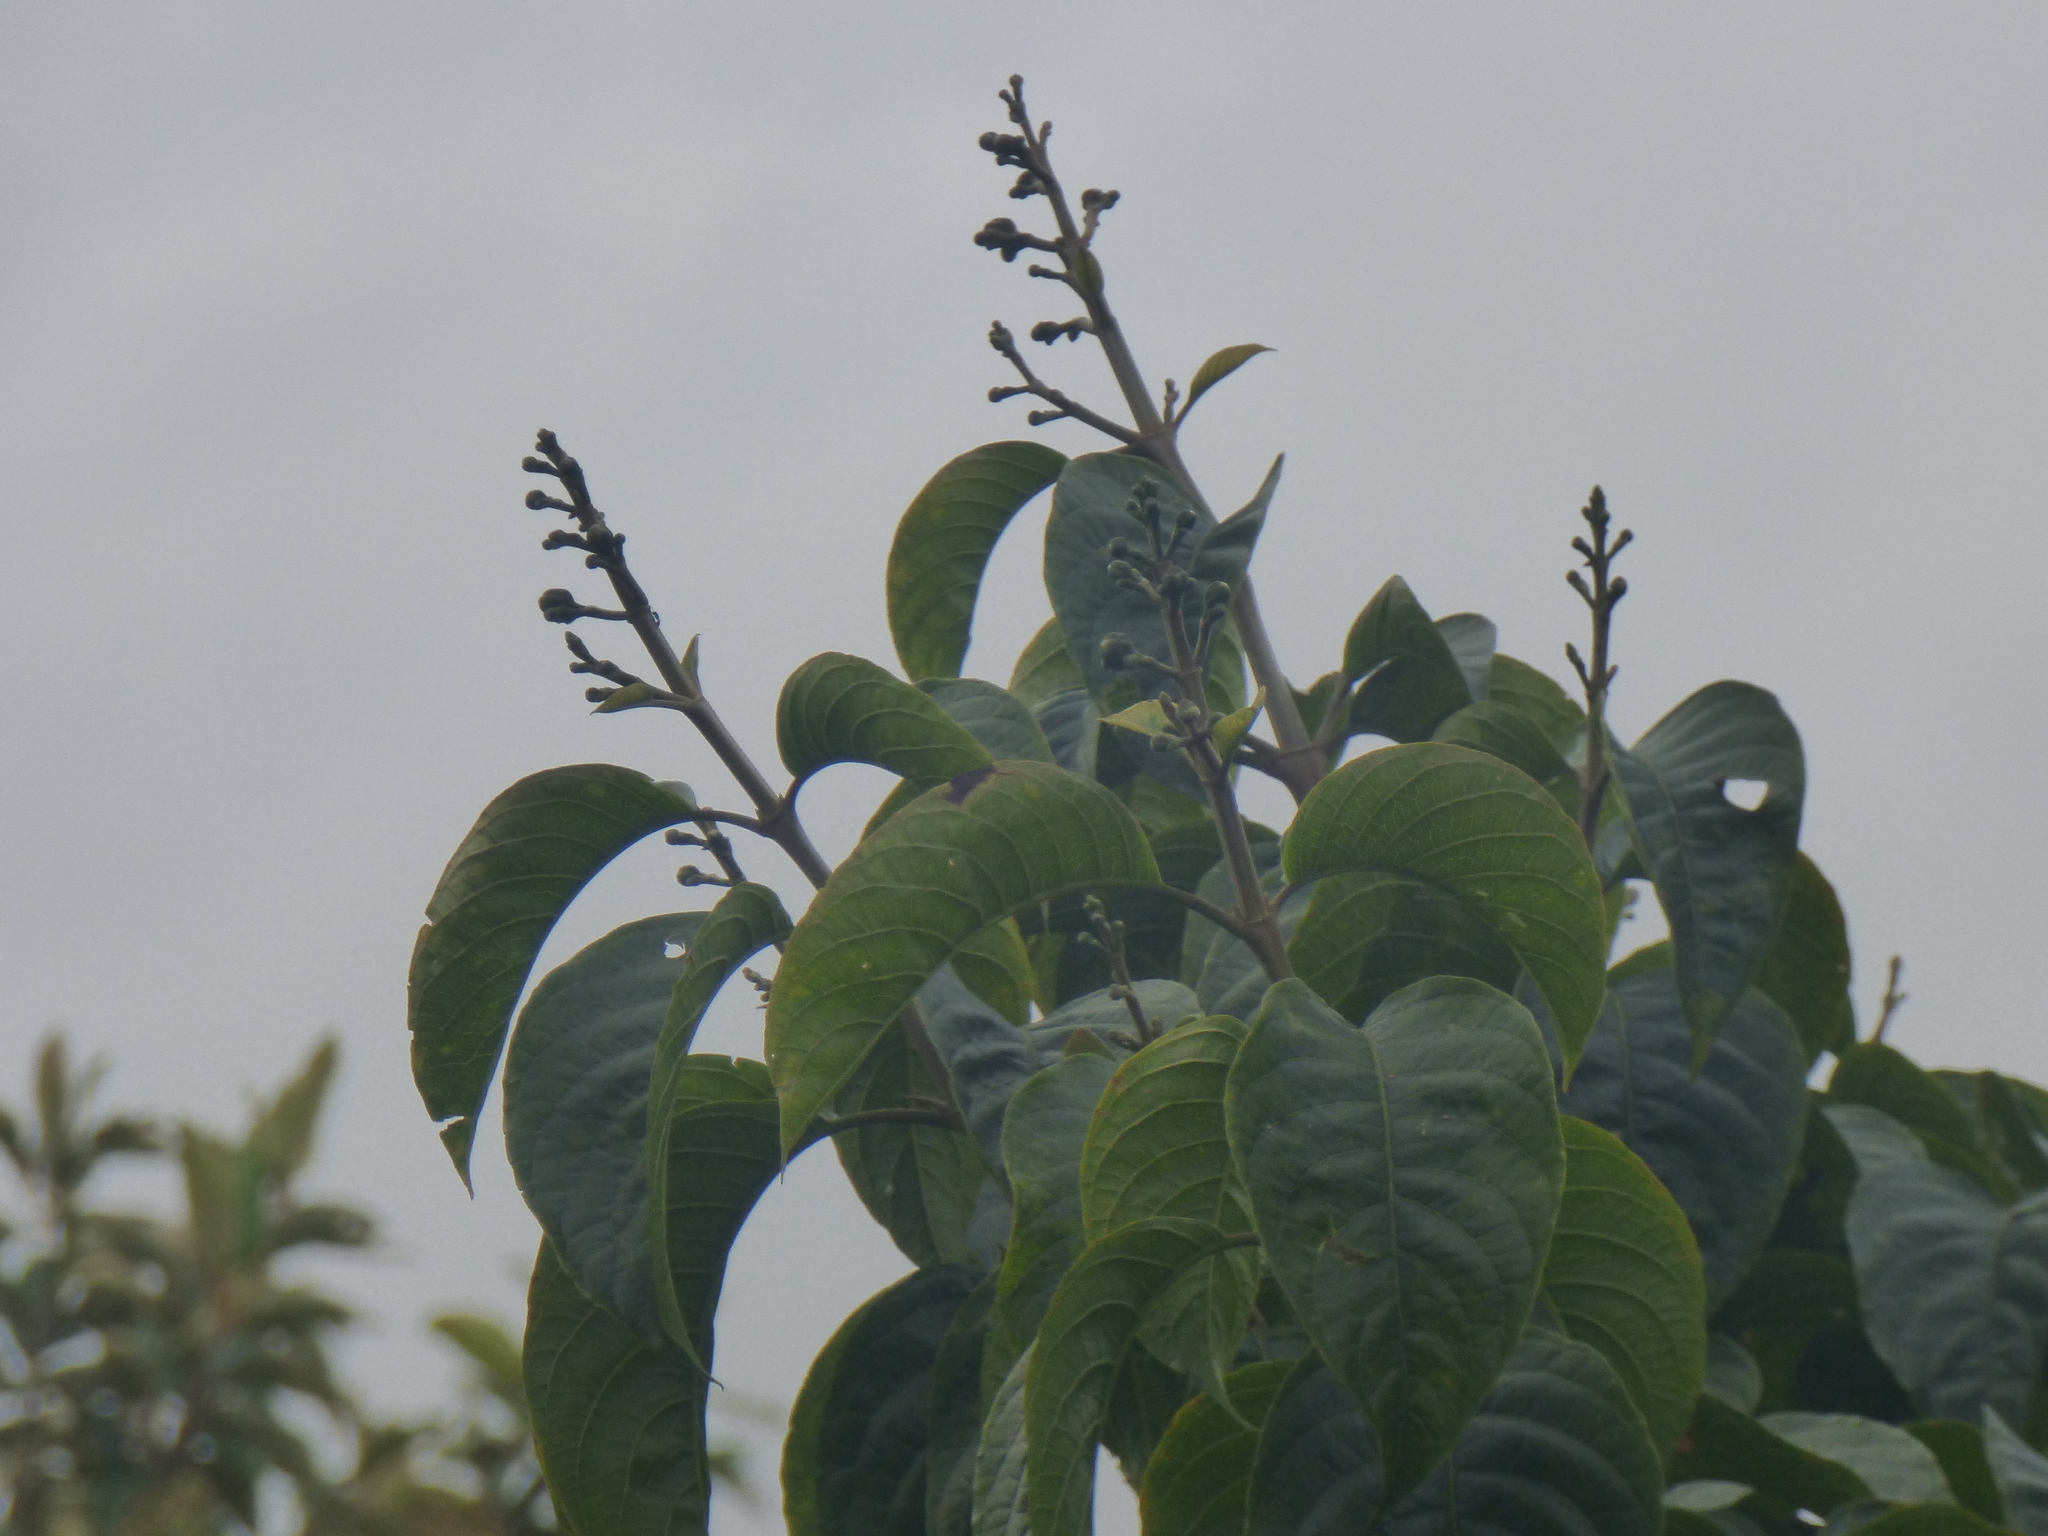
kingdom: Plantae
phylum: Tracheophyta
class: Magnoliopsida
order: Lamiales
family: Acanthaceae
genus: Trichanthera
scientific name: Trichanthera gigantea
